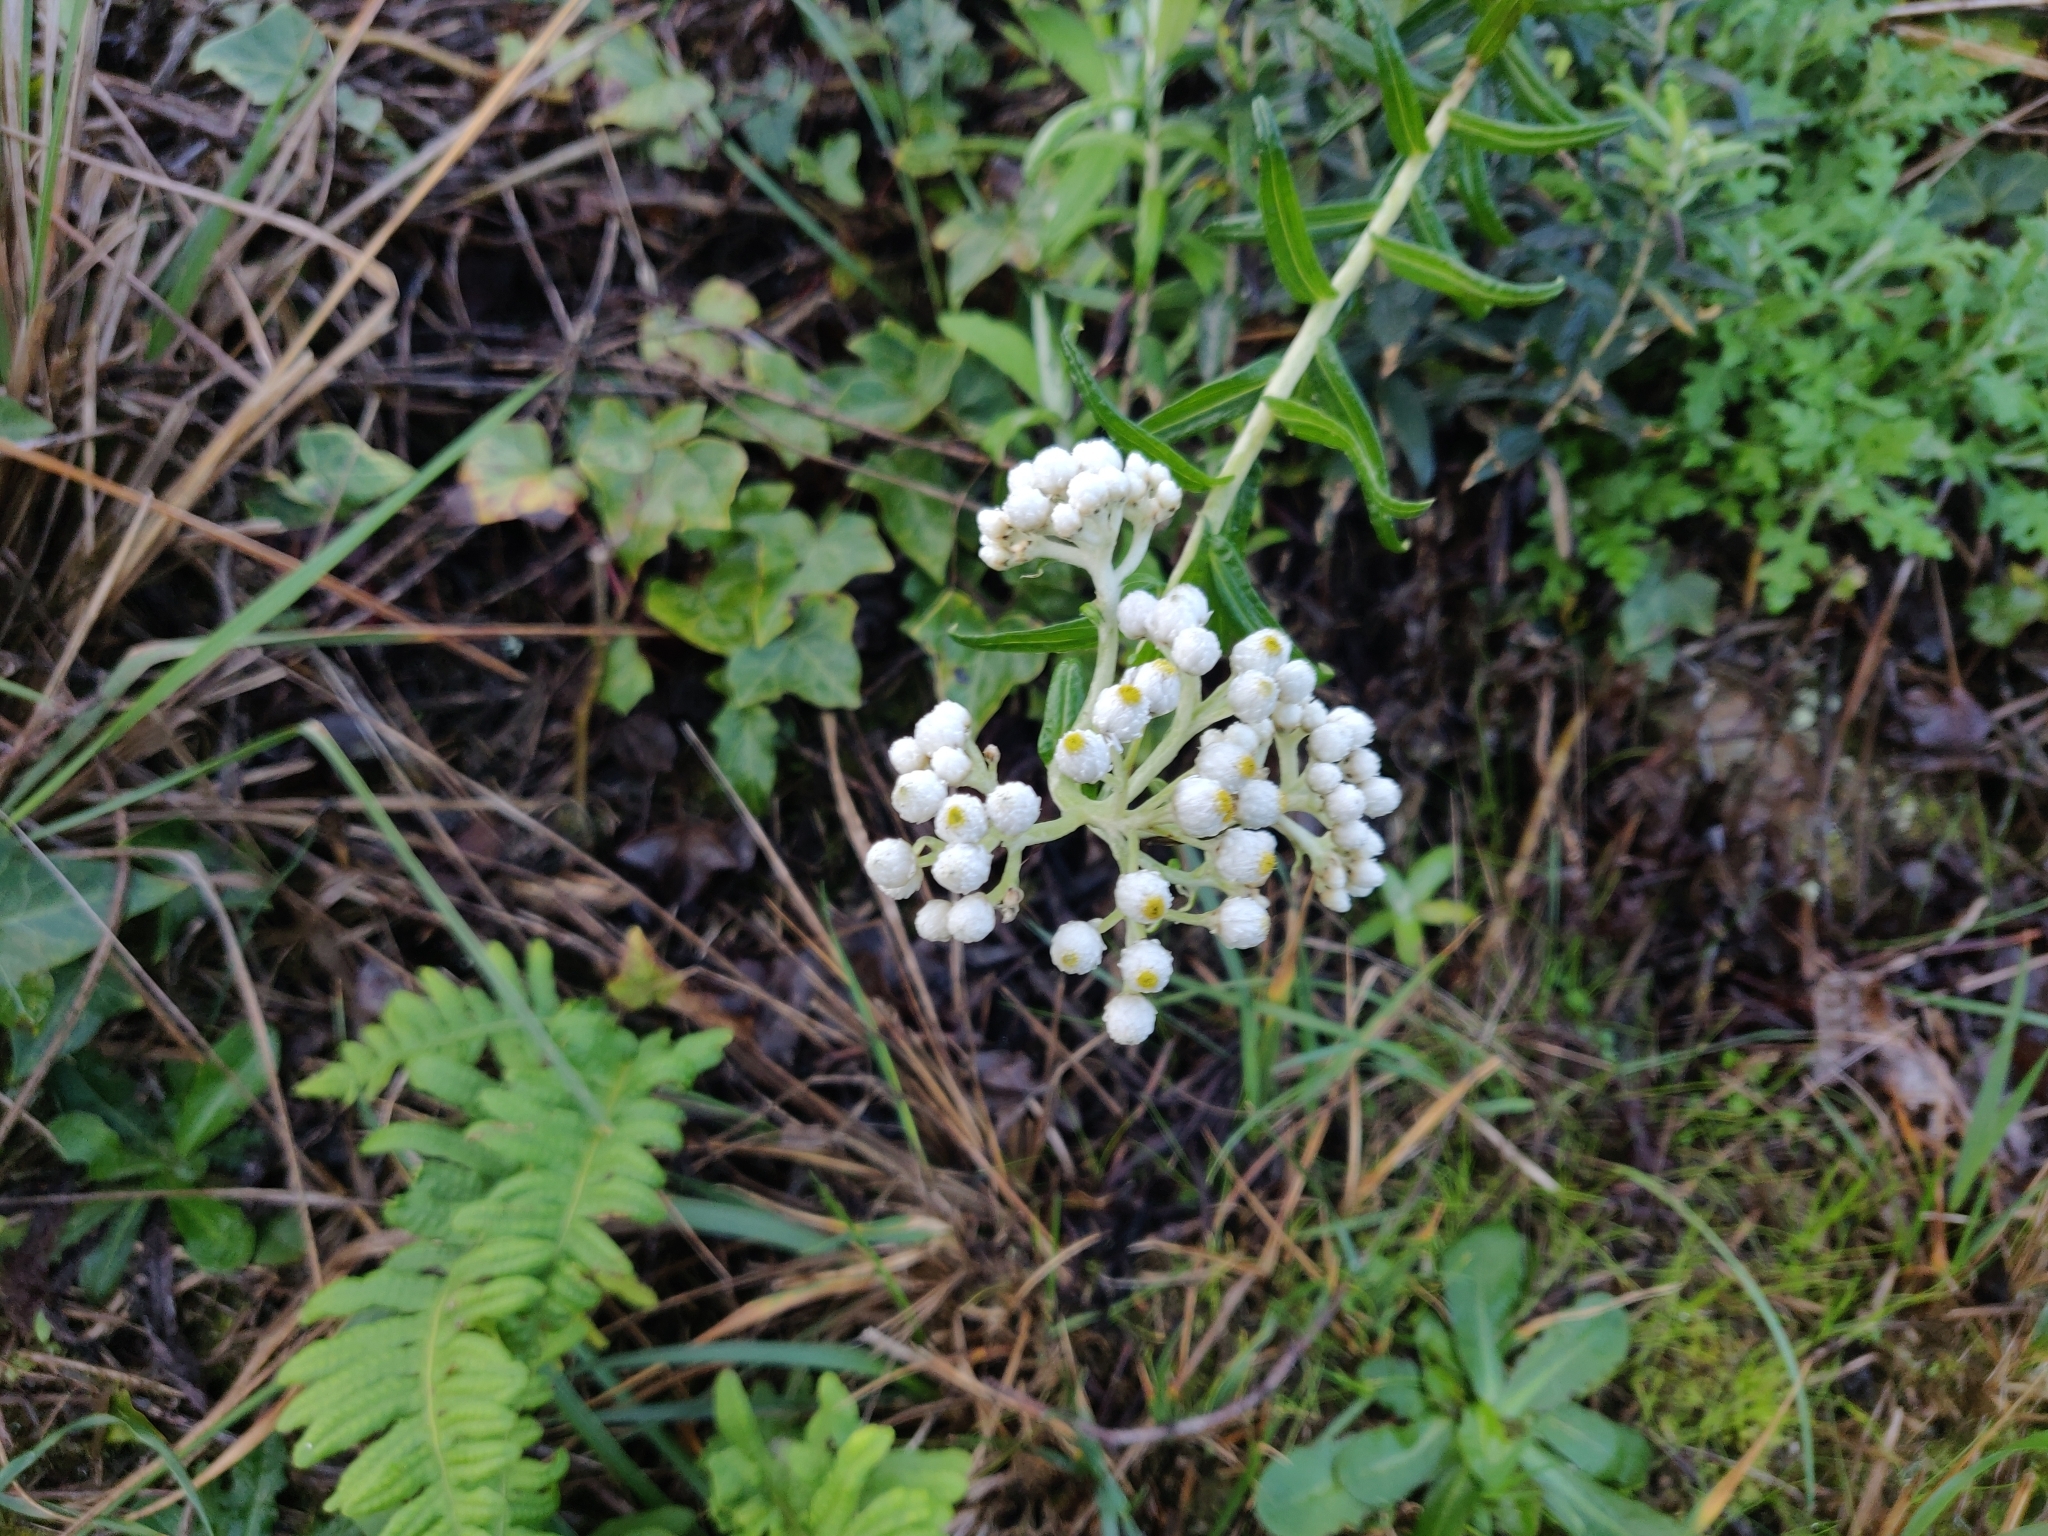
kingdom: Plantae
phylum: Tracheophyta
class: Magnoliopsida
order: Asterales
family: Asteraceae
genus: Anaphalis
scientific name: Anaphalis margaritacea
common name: Pearly everlasting
